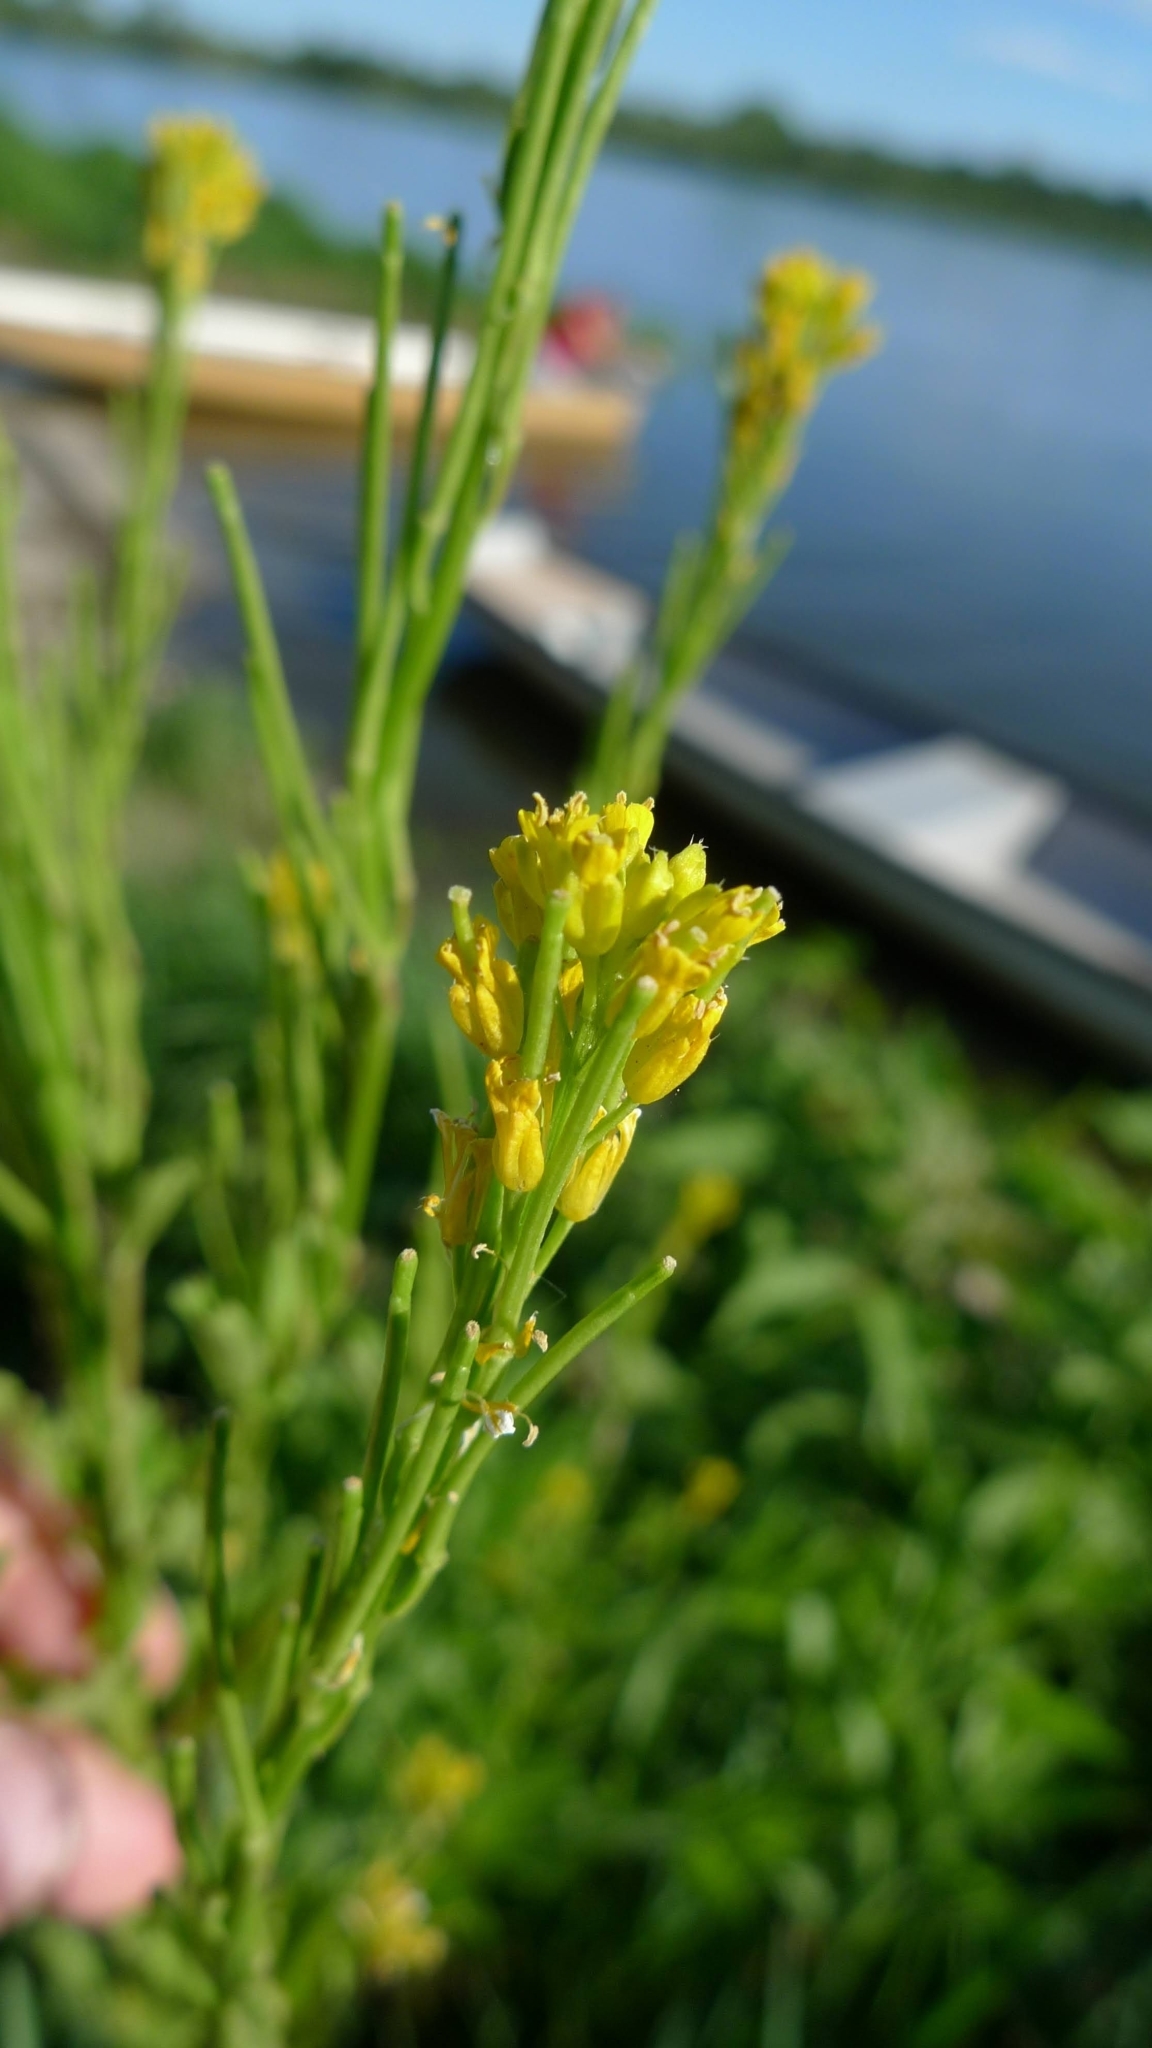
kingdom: Plantae
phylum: Tracheophyta
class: Magnoliopsida
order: Brassicales
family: Brassicaceae
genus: Barbarea
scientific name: Barbarea stricta
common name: Small-flowered winter-cress
